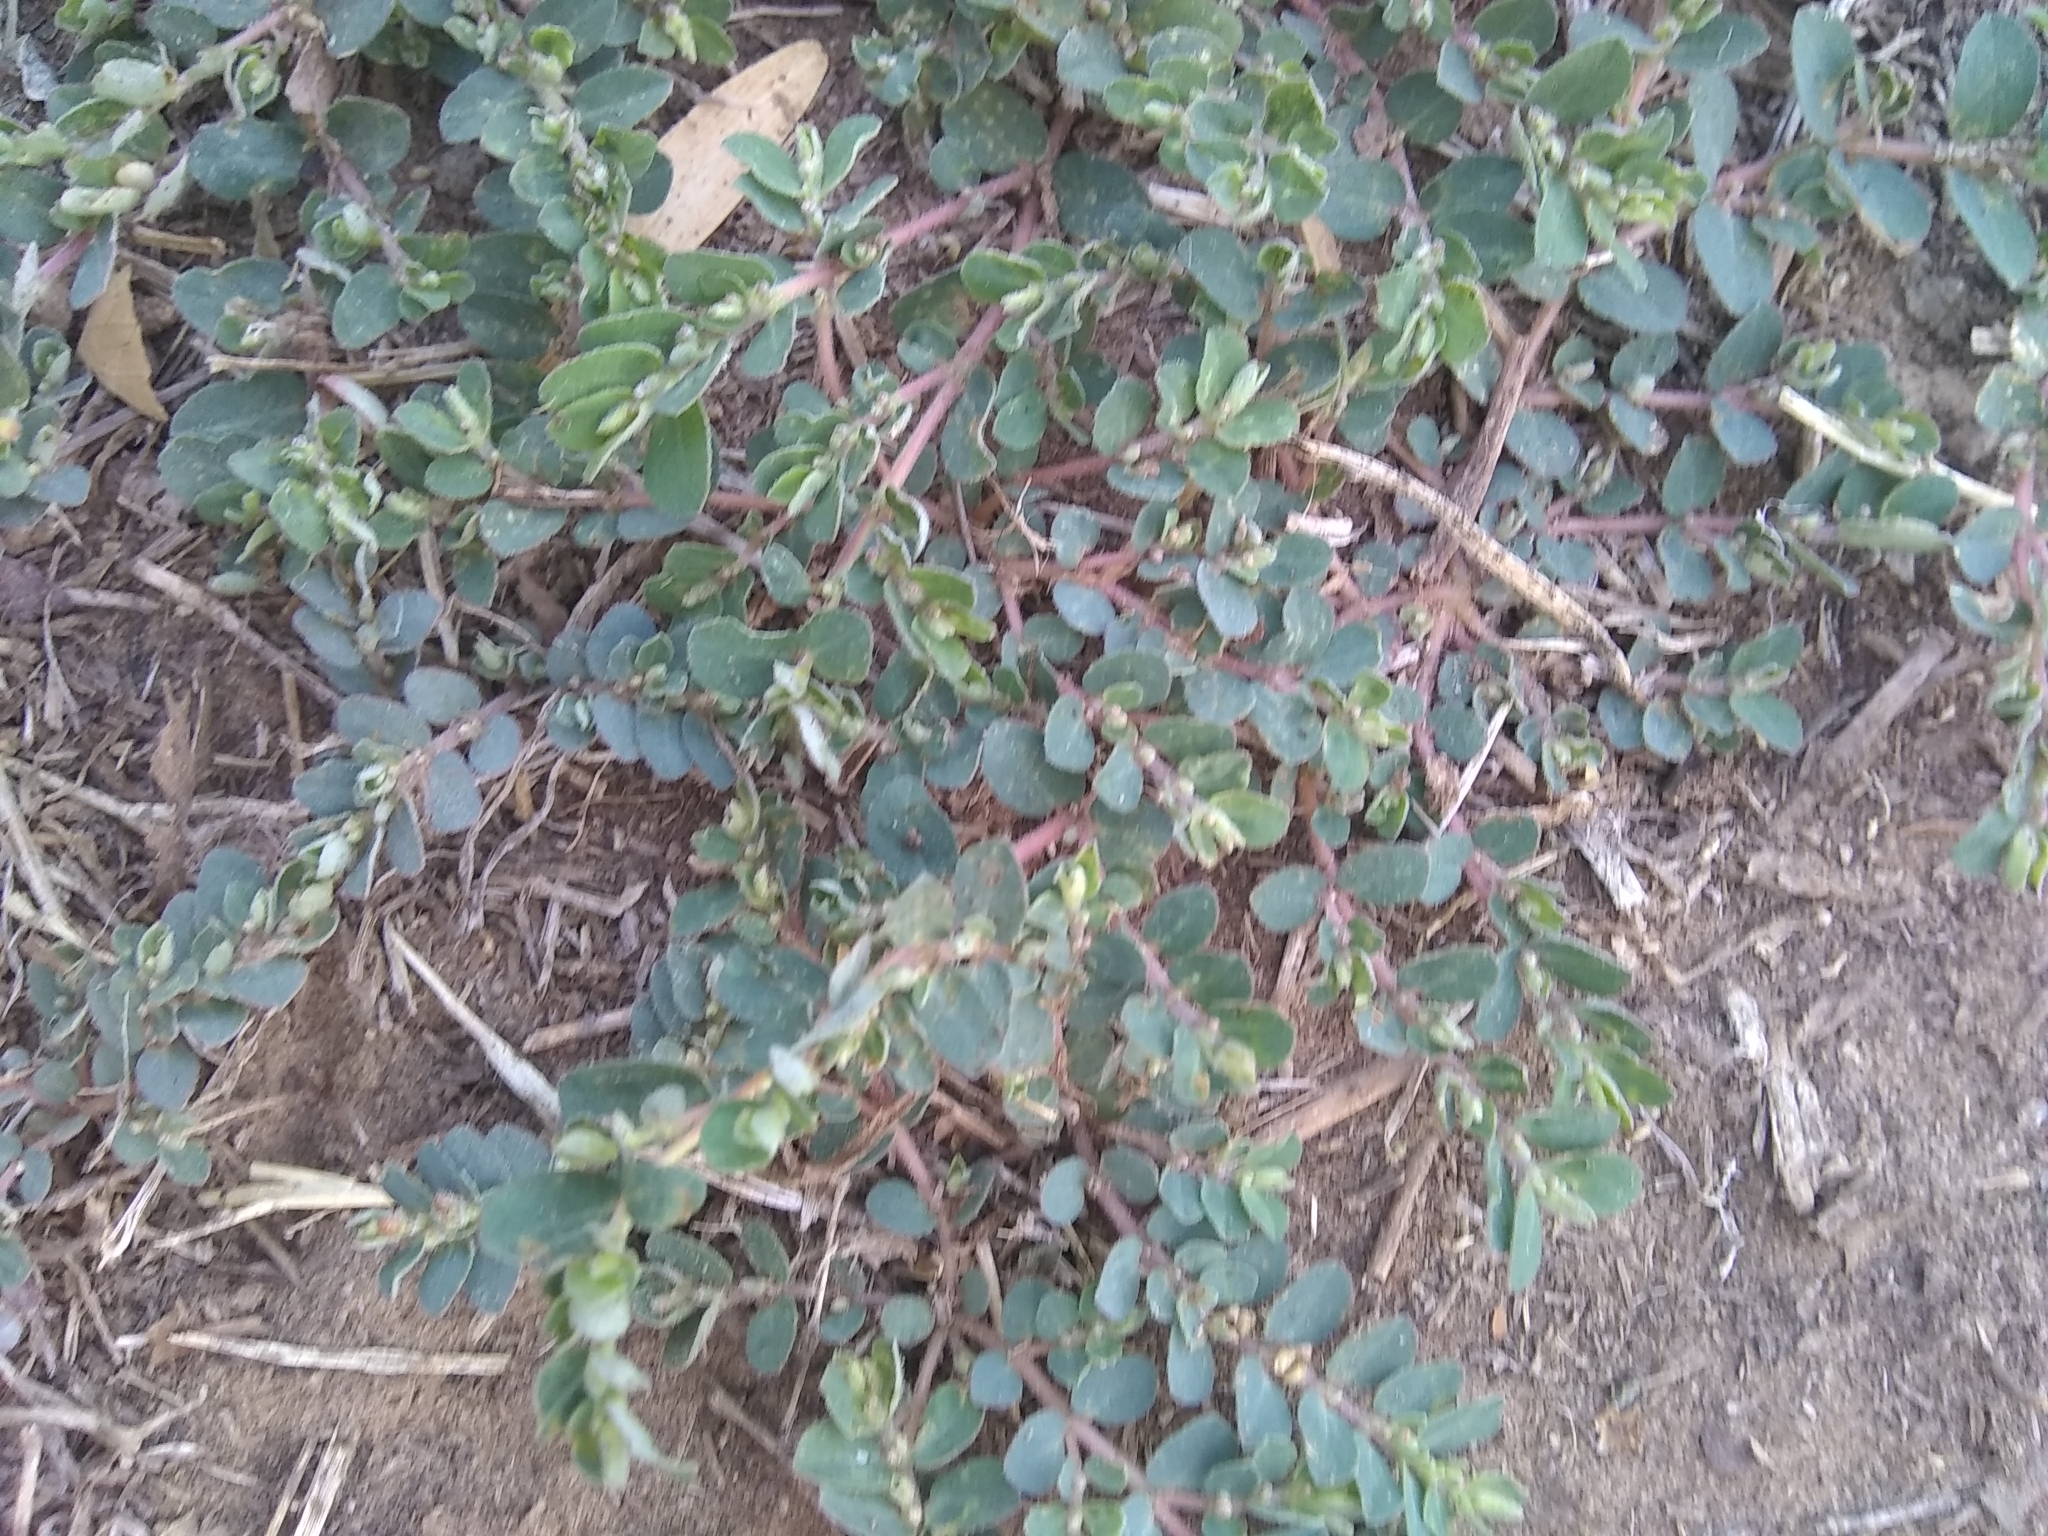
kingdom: Plantae
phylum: Tracheophyta
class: Magnoliopsida
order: Malpighiales
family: Euphorbiaceae
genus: Euphorbia
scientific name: Euphorbia prostrata
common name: Prostrate sandmat
